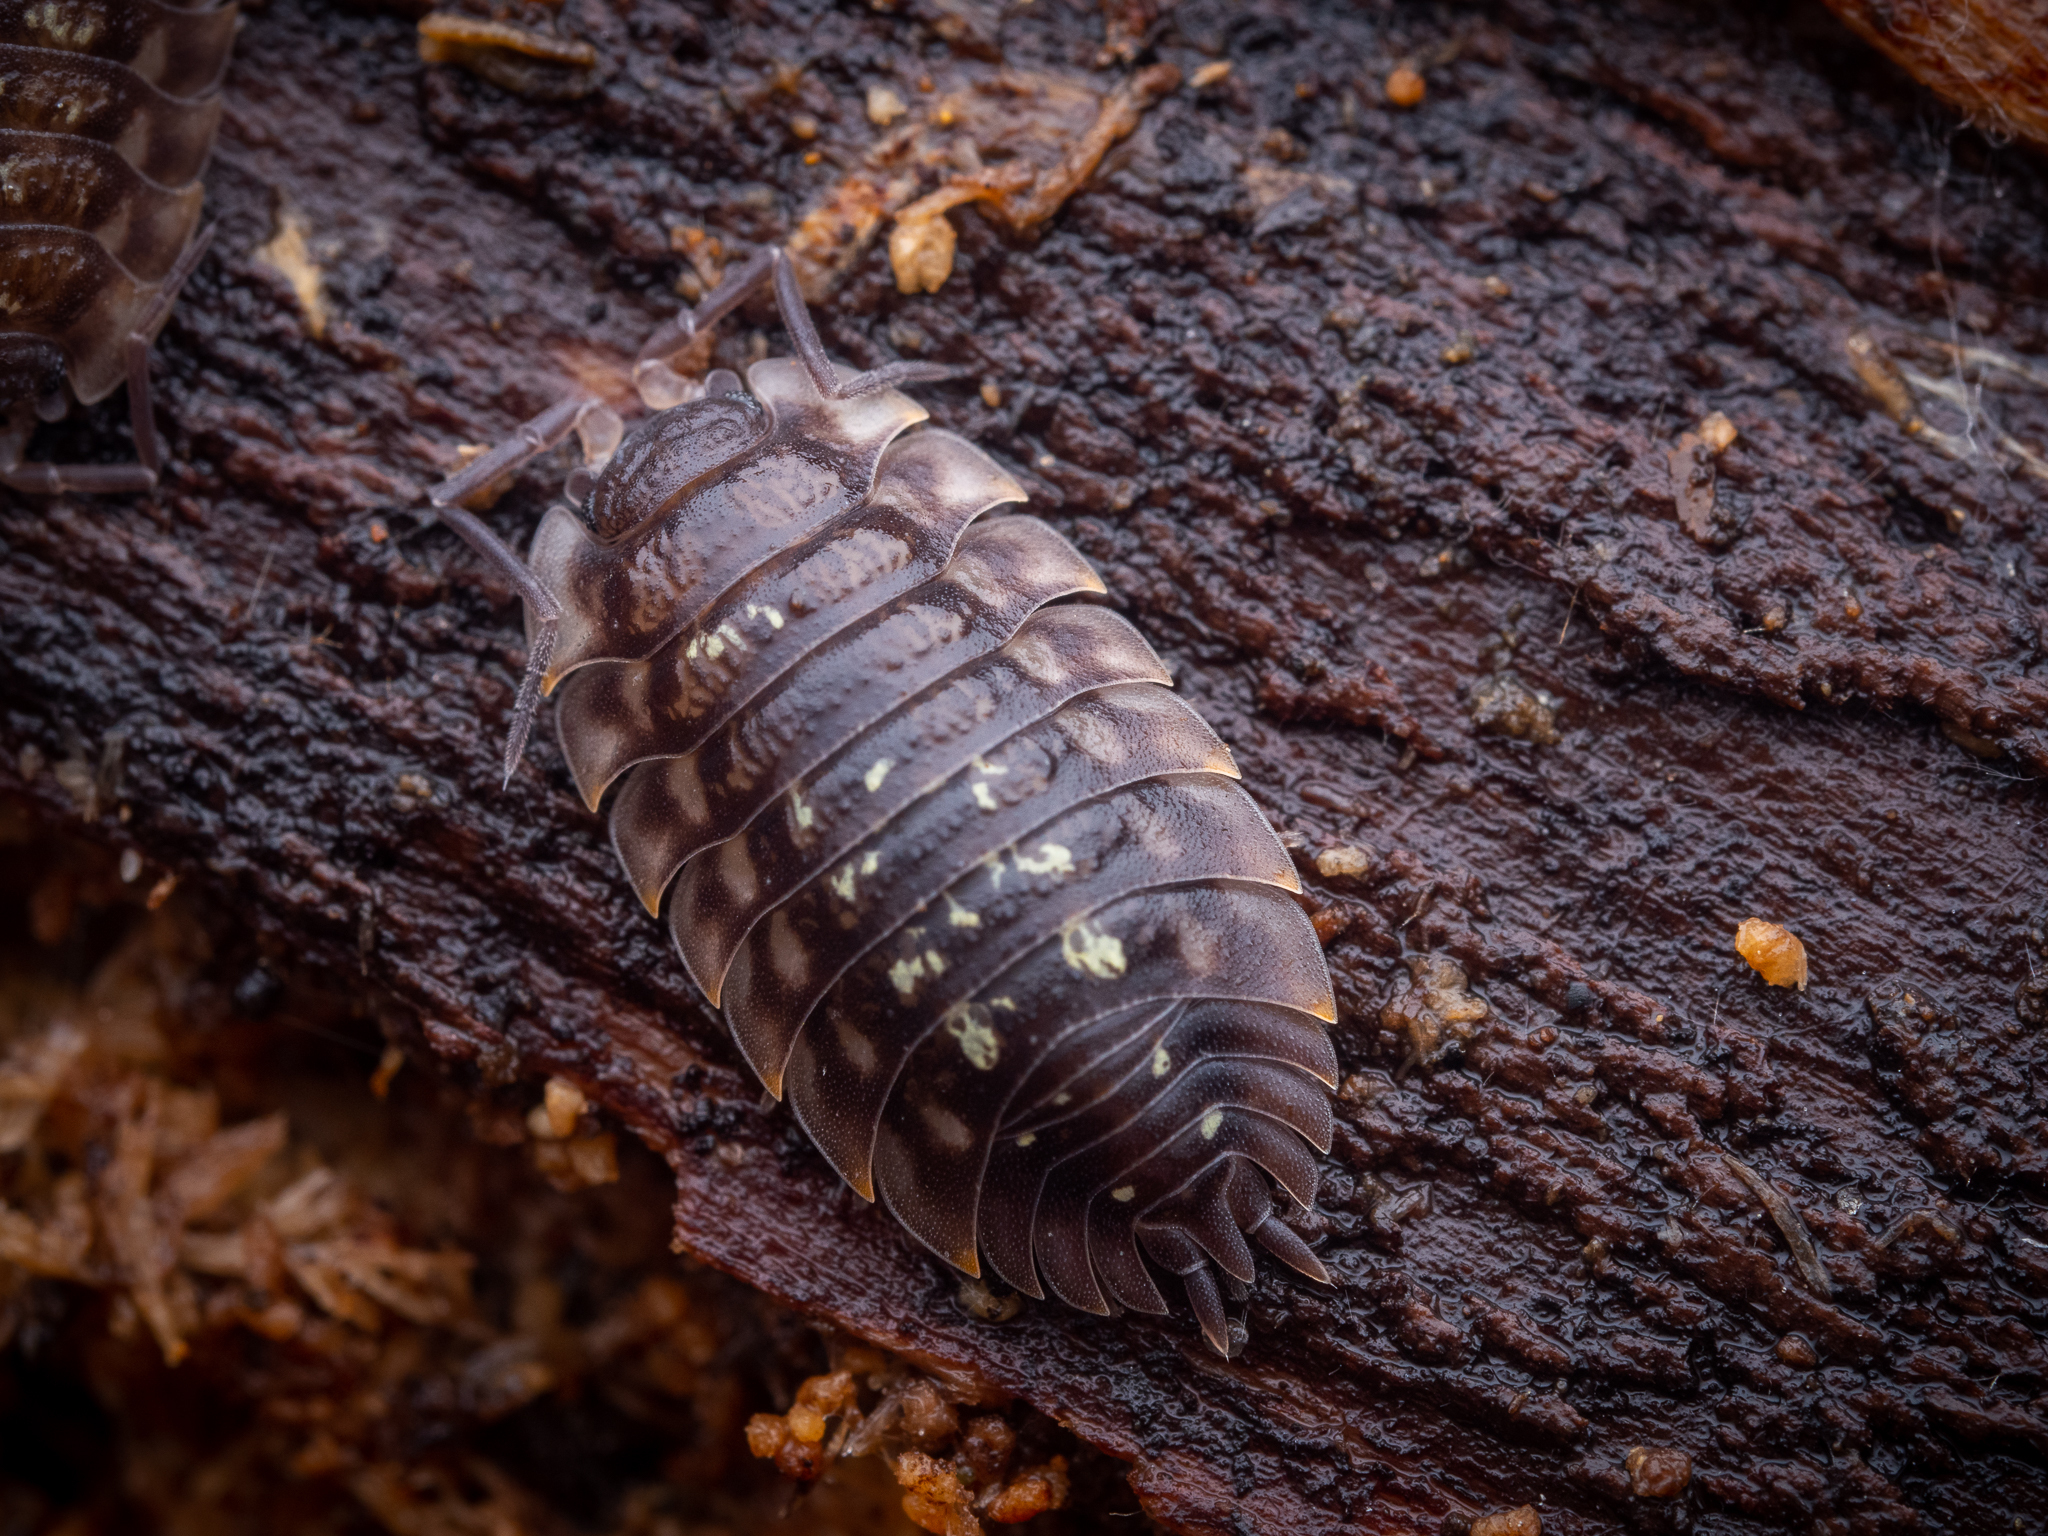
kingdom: Animalia
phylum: Arthropoda
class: Malacostraca
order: Isopoda
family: Oniscidae
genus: Oniscus
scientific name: Oniscus asellus
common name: Common shiny woodlouse
